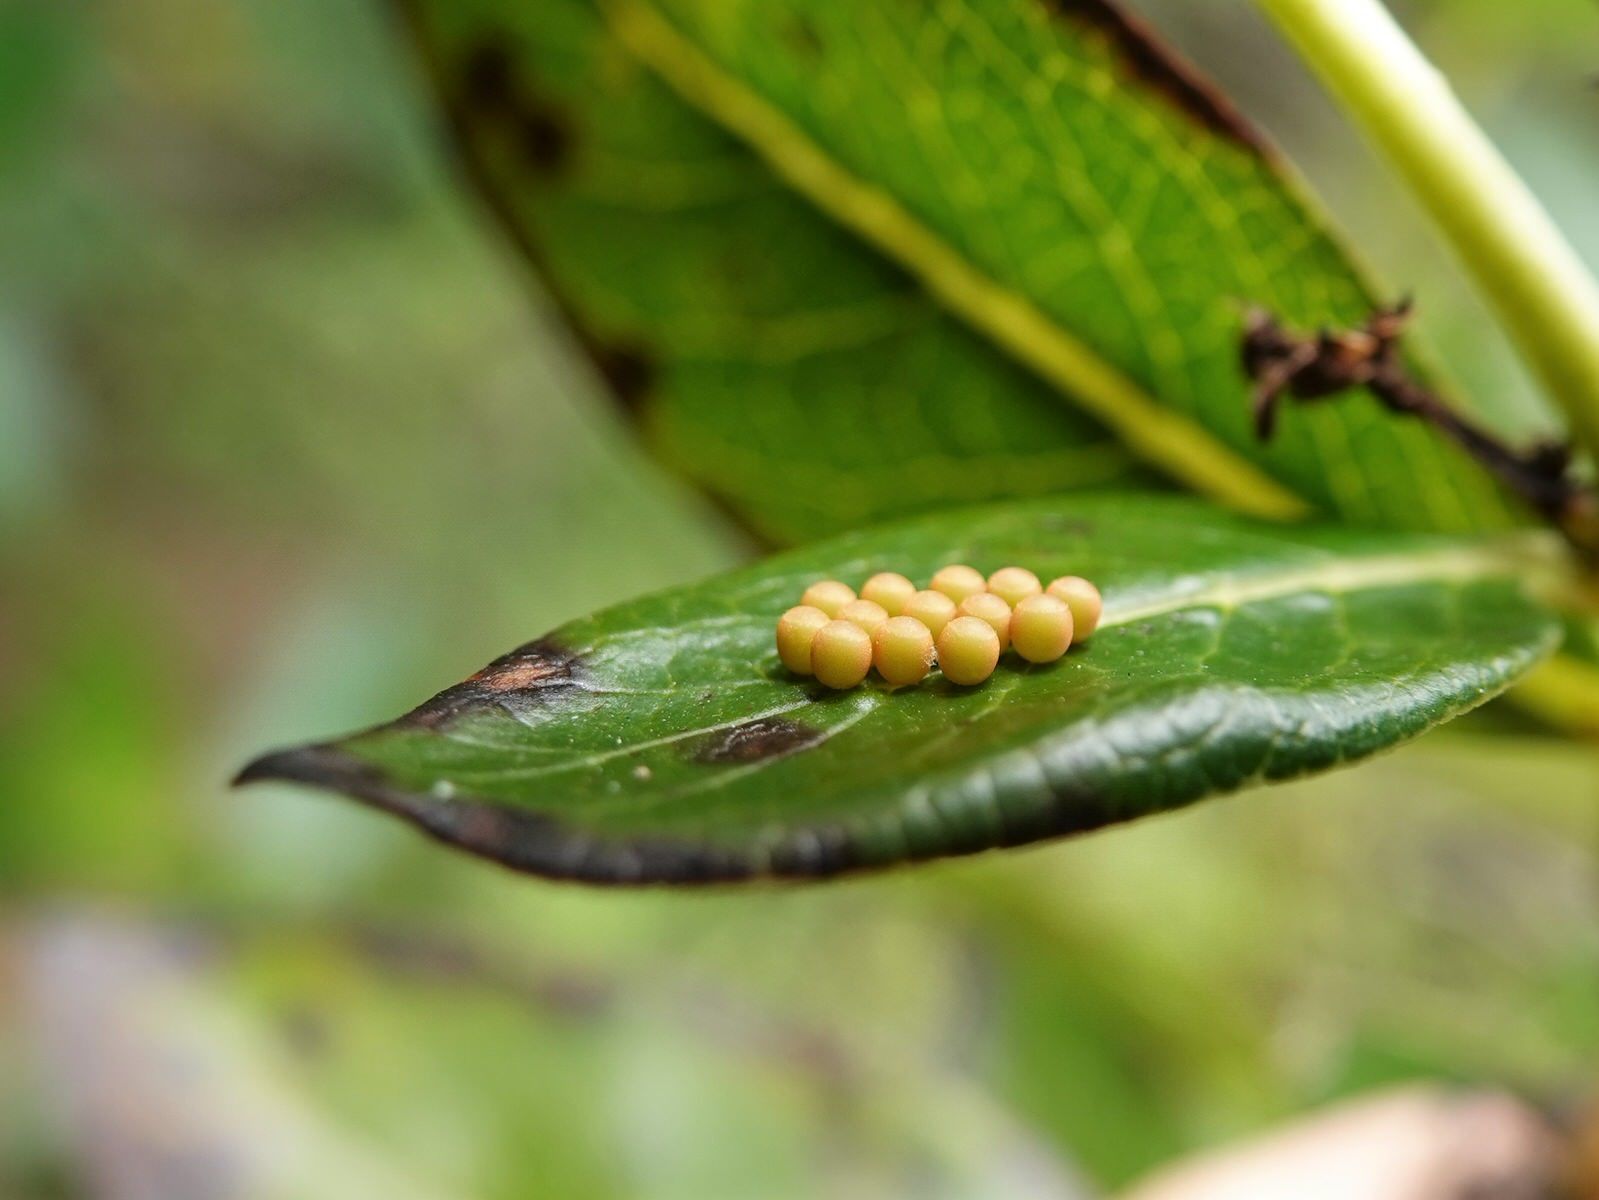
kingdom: Animalia
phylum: Arthropoda
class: Insecta
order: Hemiptera
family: Pentatomidae
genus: Glaucias
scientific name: Glaucias amyota
